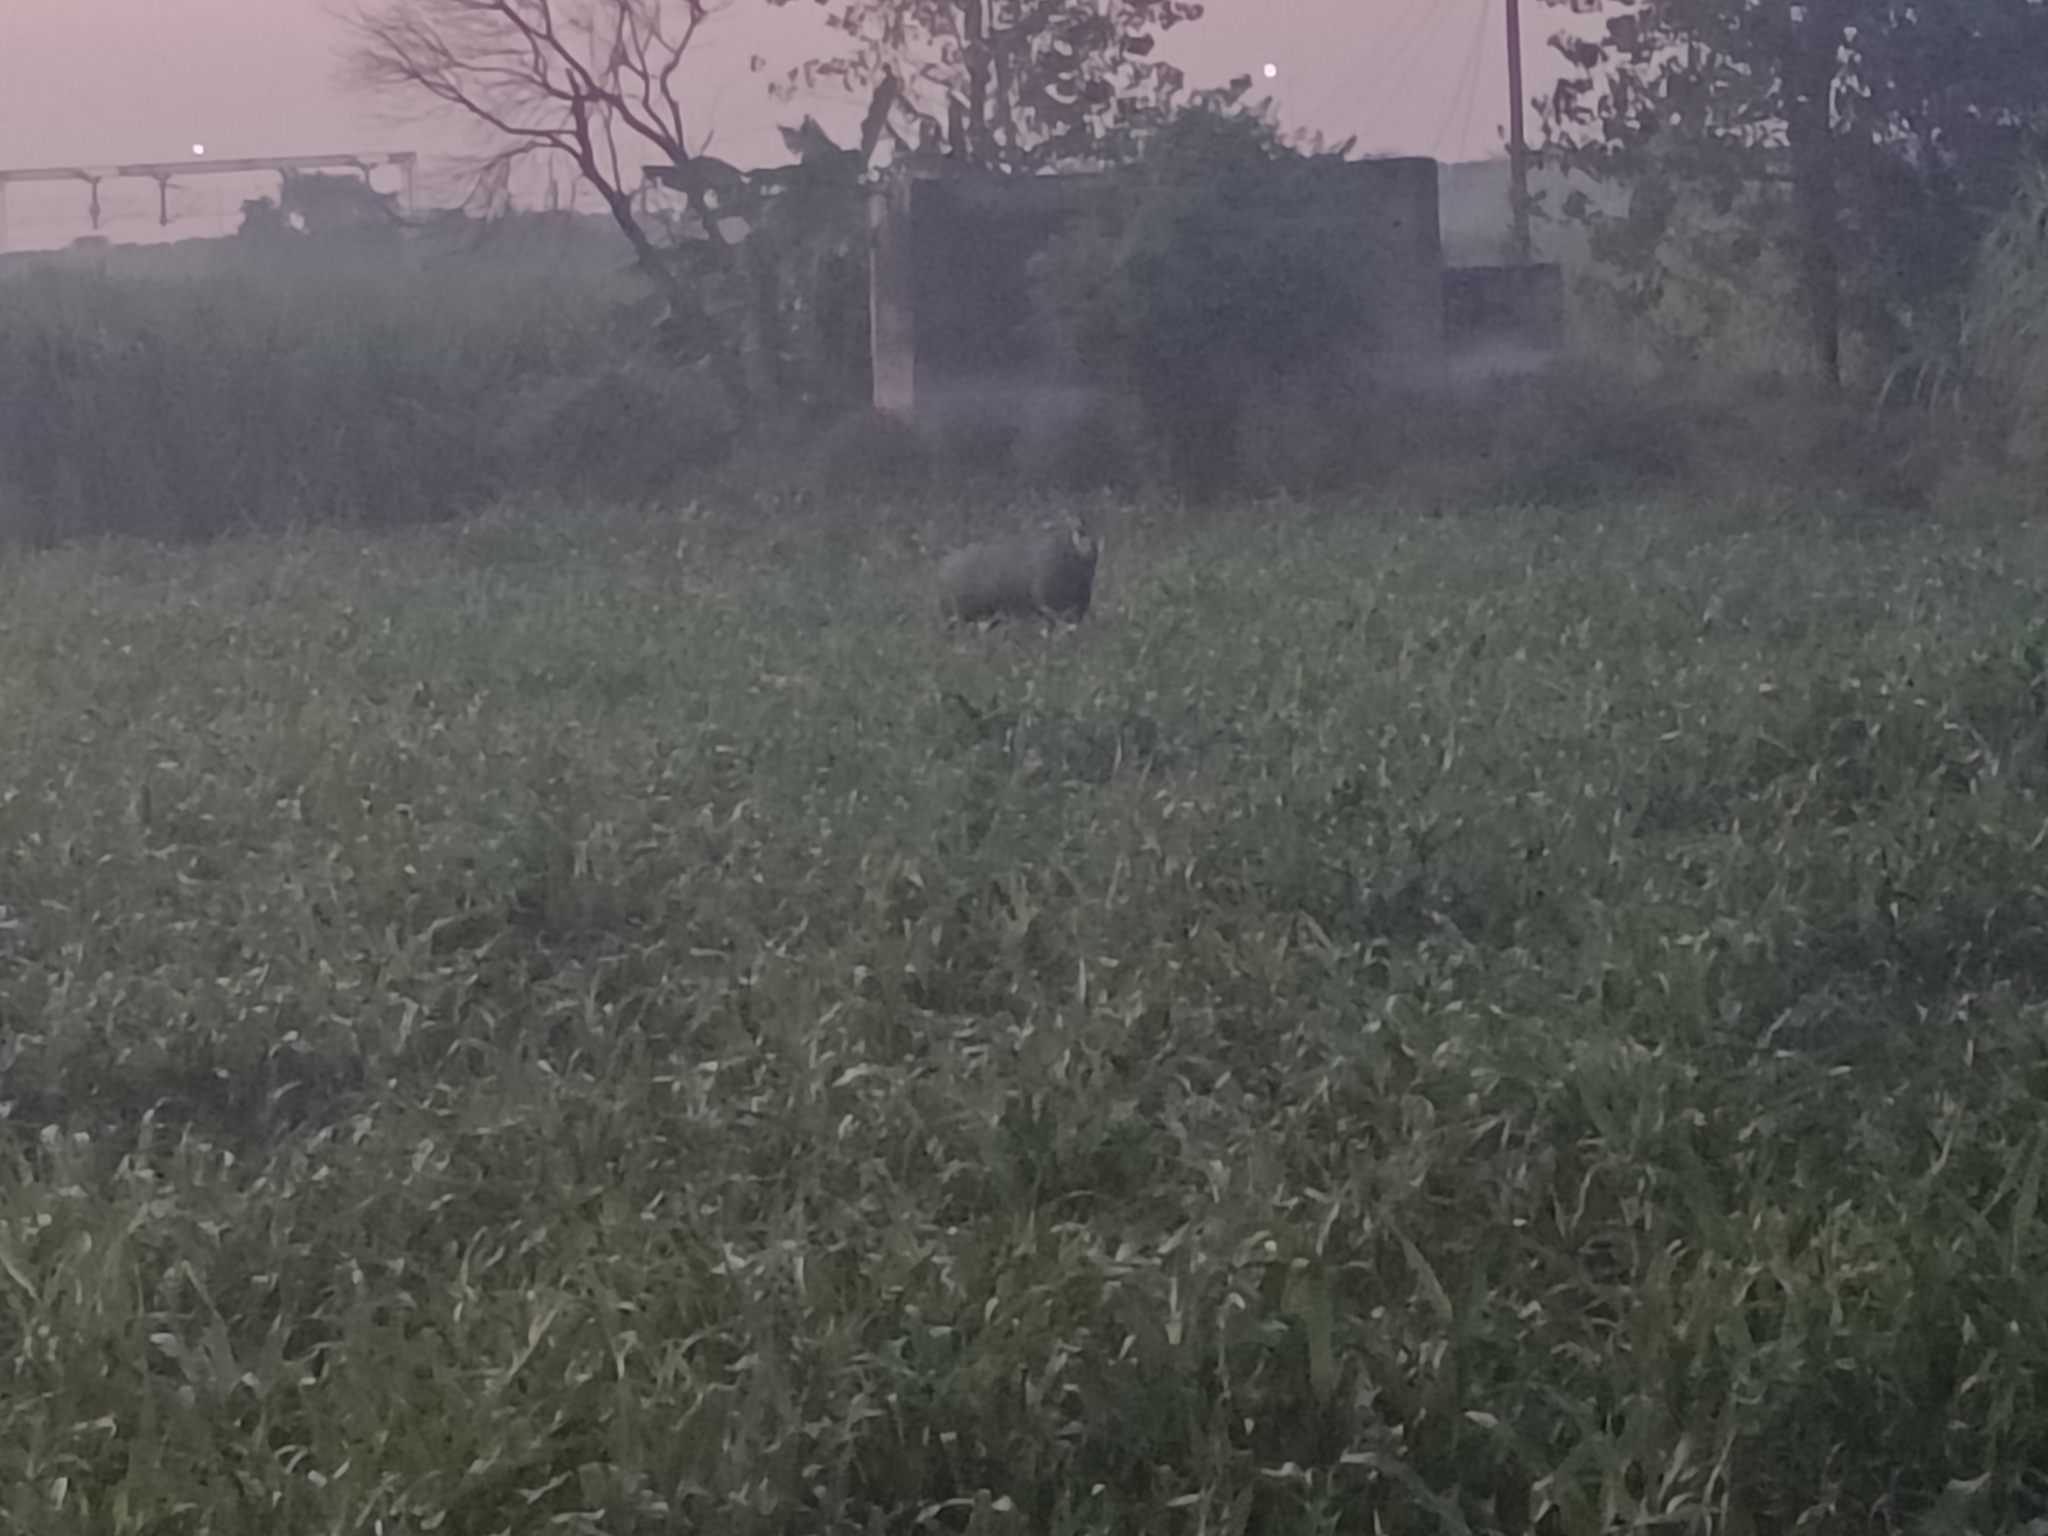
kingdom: Animalia
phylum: Chordata
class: Mammalia
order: Artiodactyla
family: Bovidae
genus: Boselaphus
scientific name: Boselaphus tragocamelus
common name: Nilgai
